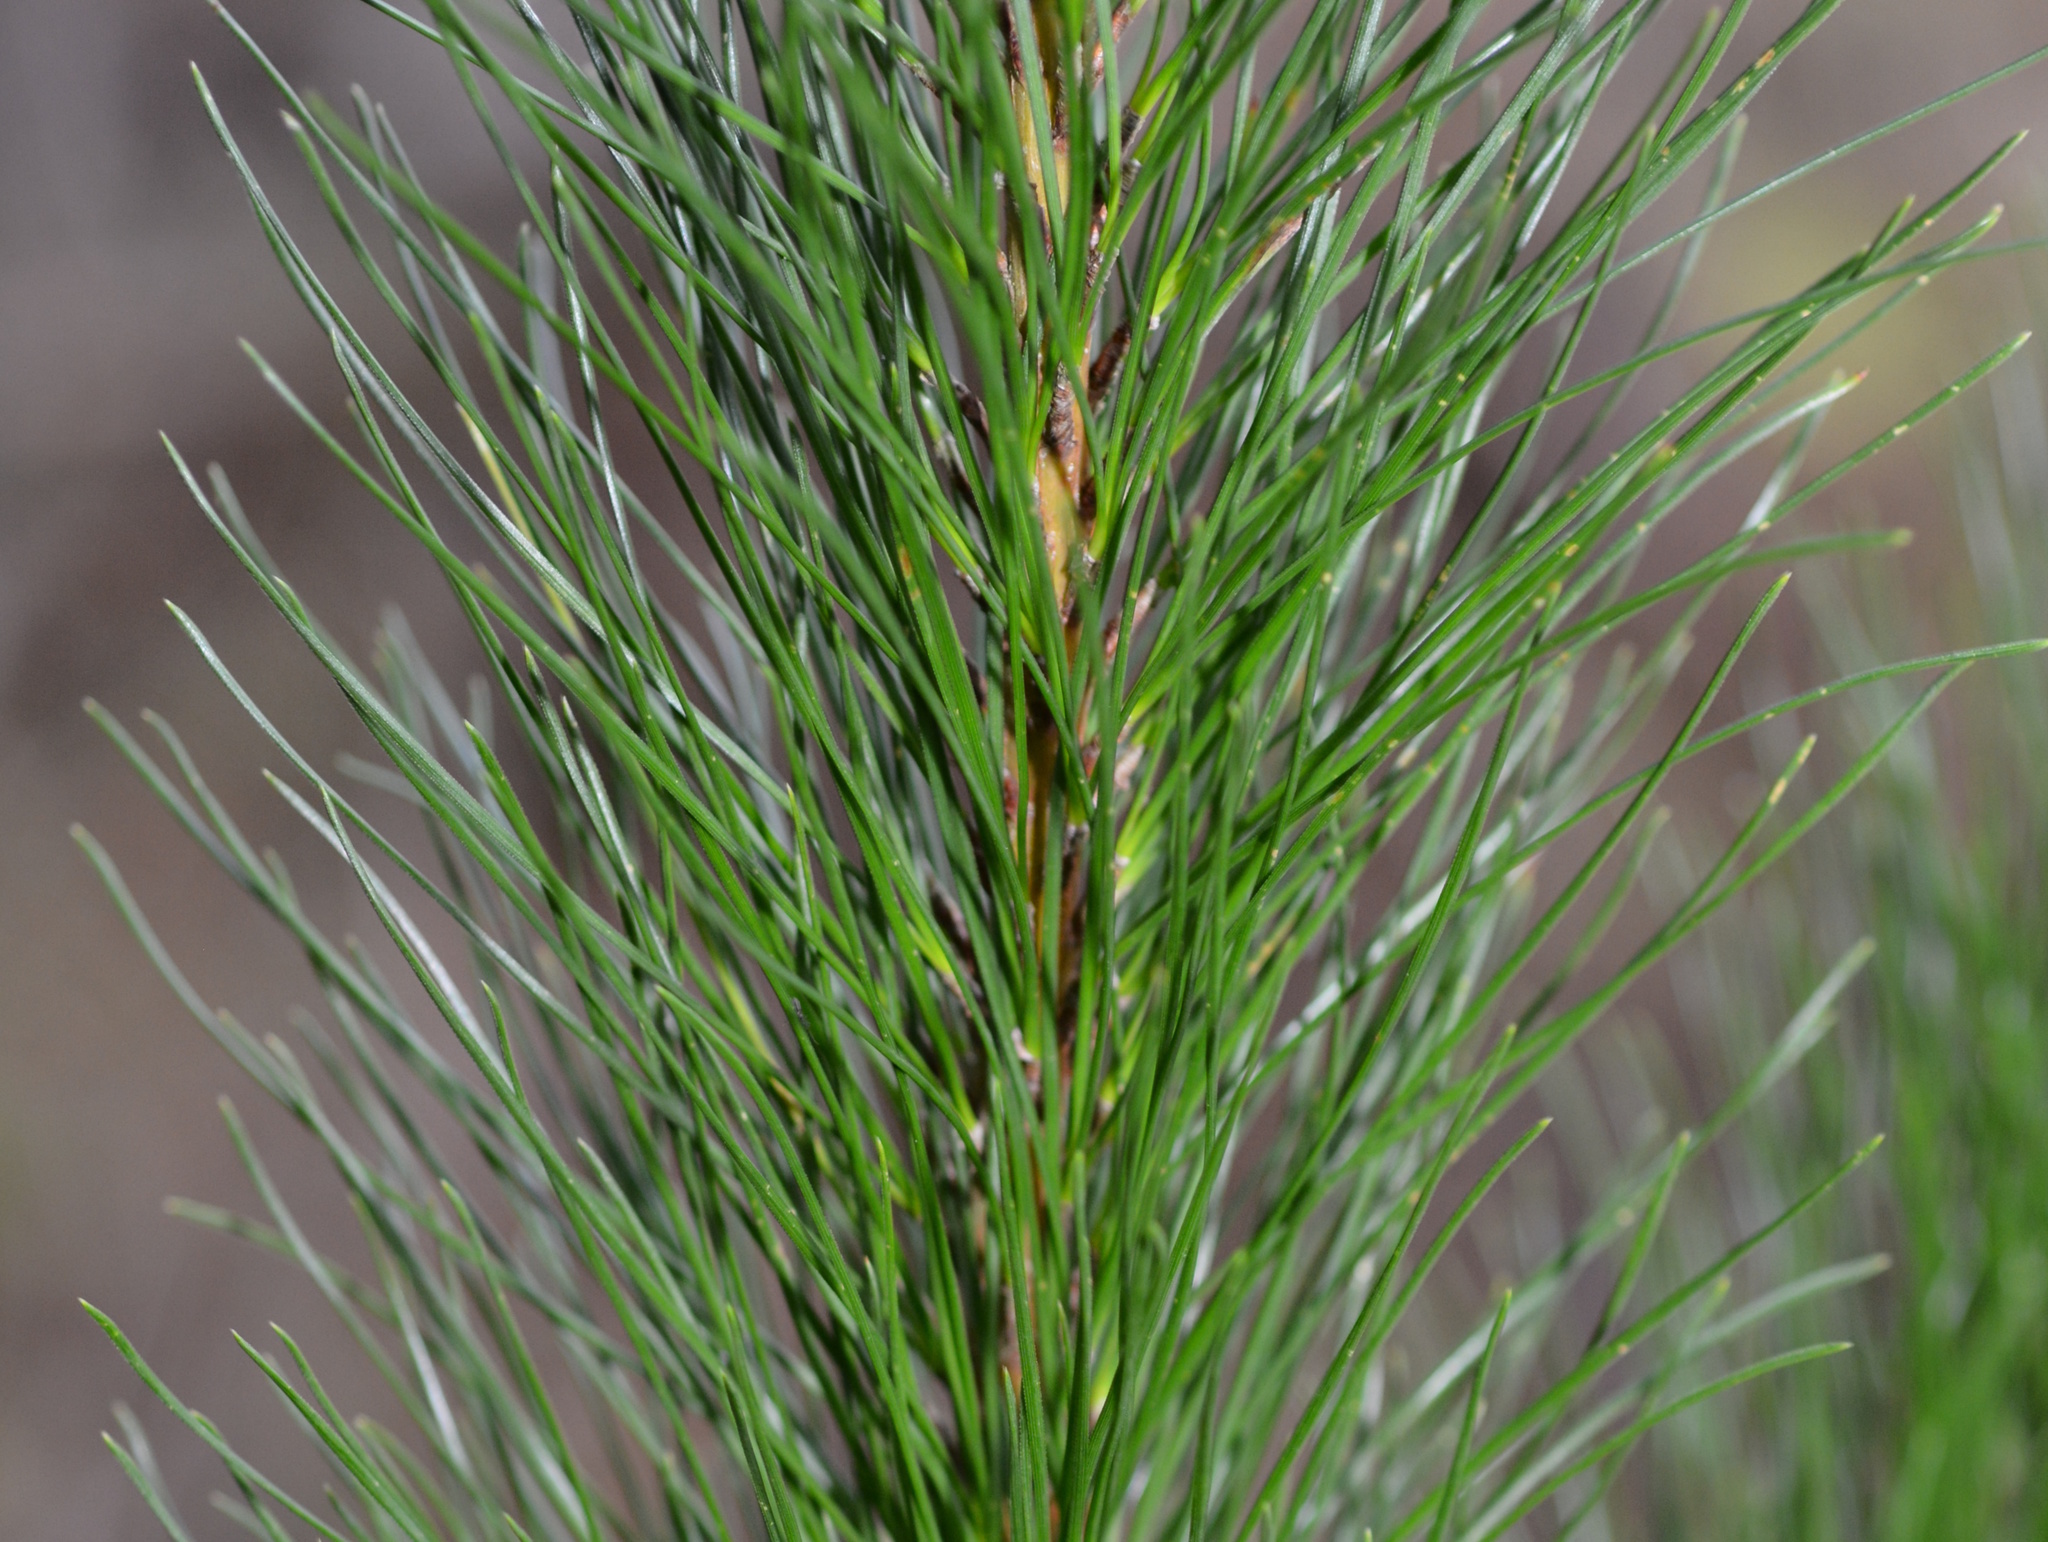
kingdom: Plantae
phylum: Tracheophyta
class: Pinopsida
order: Pinales
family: Pinaceae
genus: Pinus
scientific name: Pinus radiata
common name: Monterey pine
